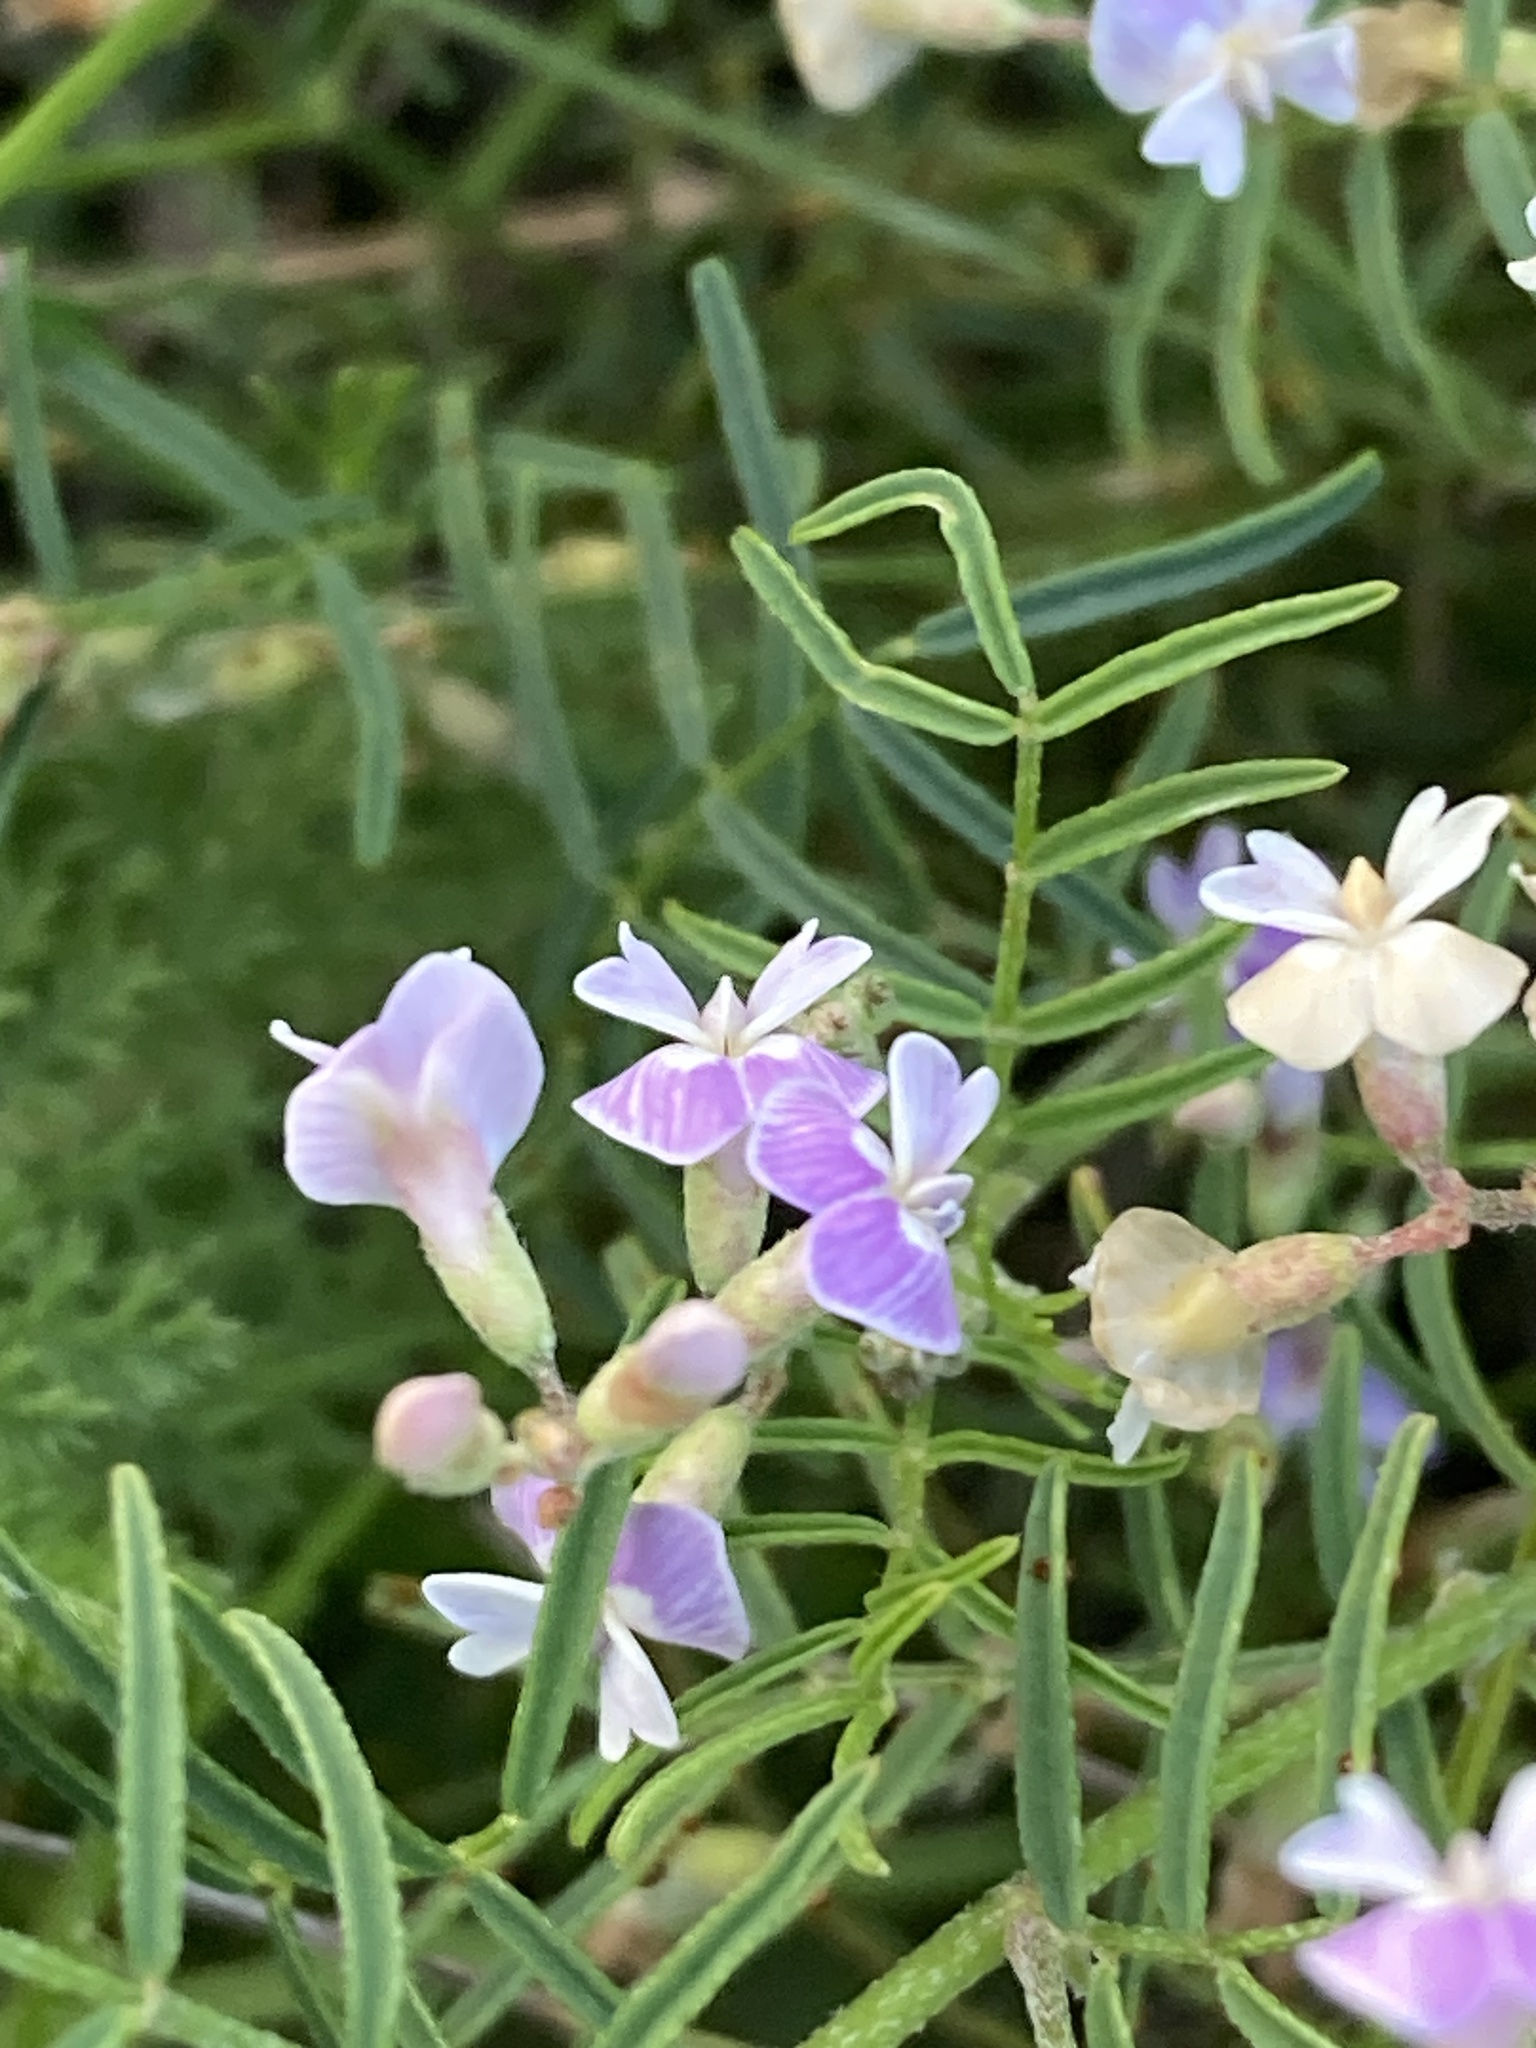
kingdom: Plantae
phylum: Tracheophyta
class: Magnoliopsida
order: Fabales
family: Fabaceae
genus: Astragalus
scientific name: Astragalus austriacus
